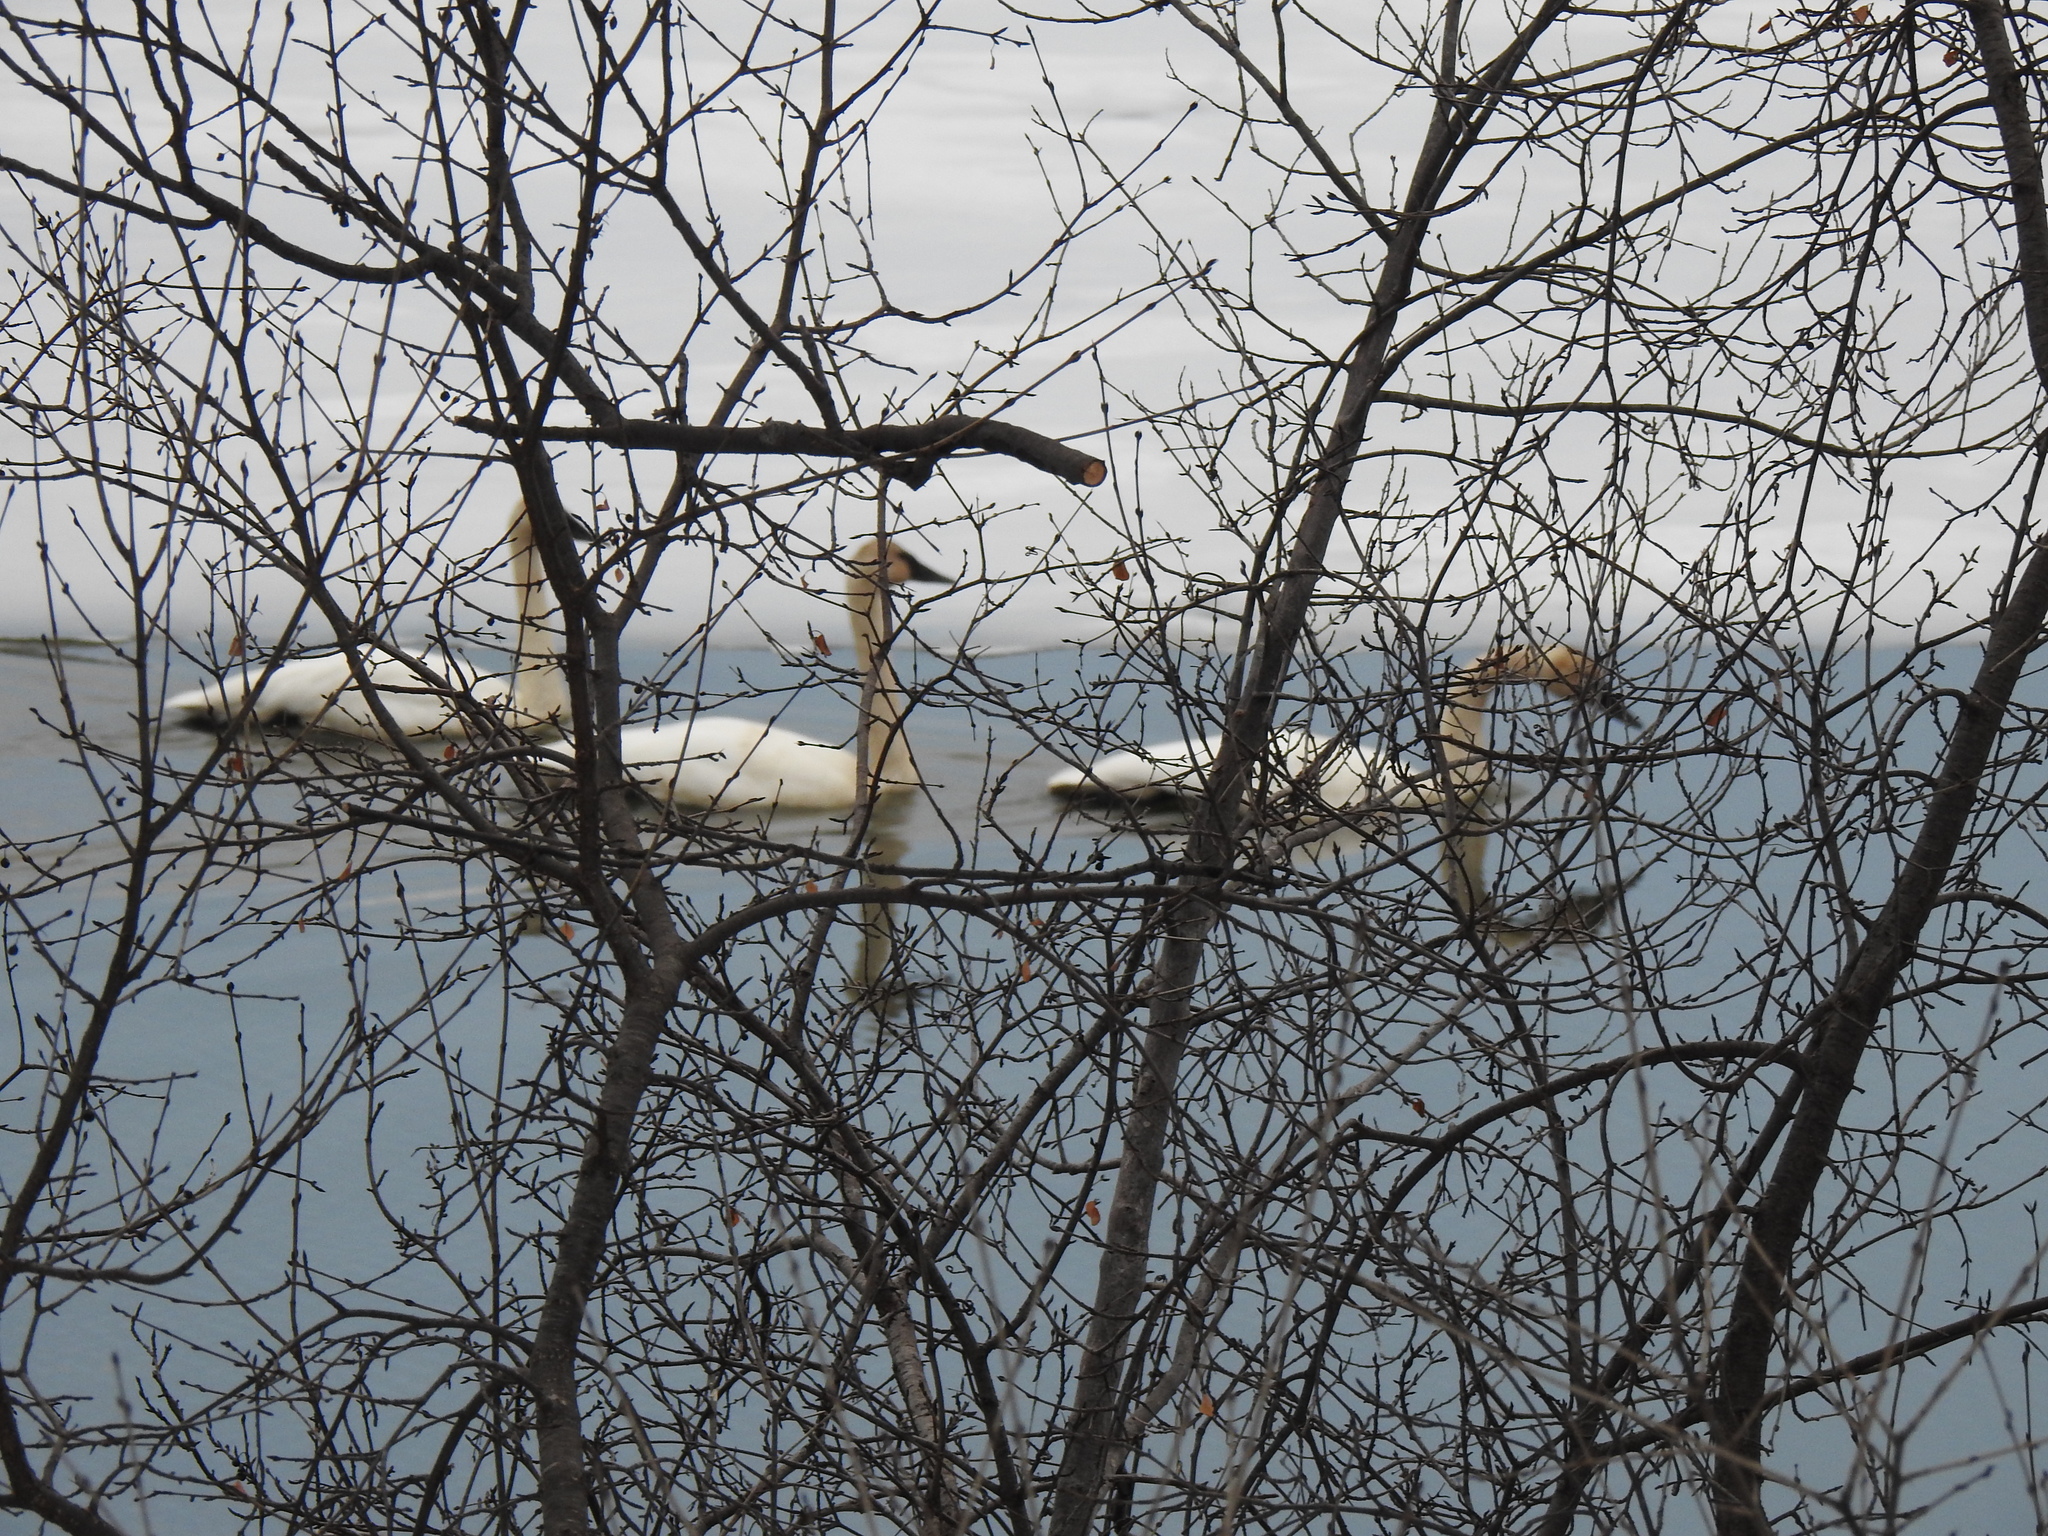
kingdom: Animalia
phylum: Chordata
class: Aves
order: Anseriformes
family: Anatidae
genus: Cygnus
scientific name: Cygnus buccinator
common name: Trumpeter swan
